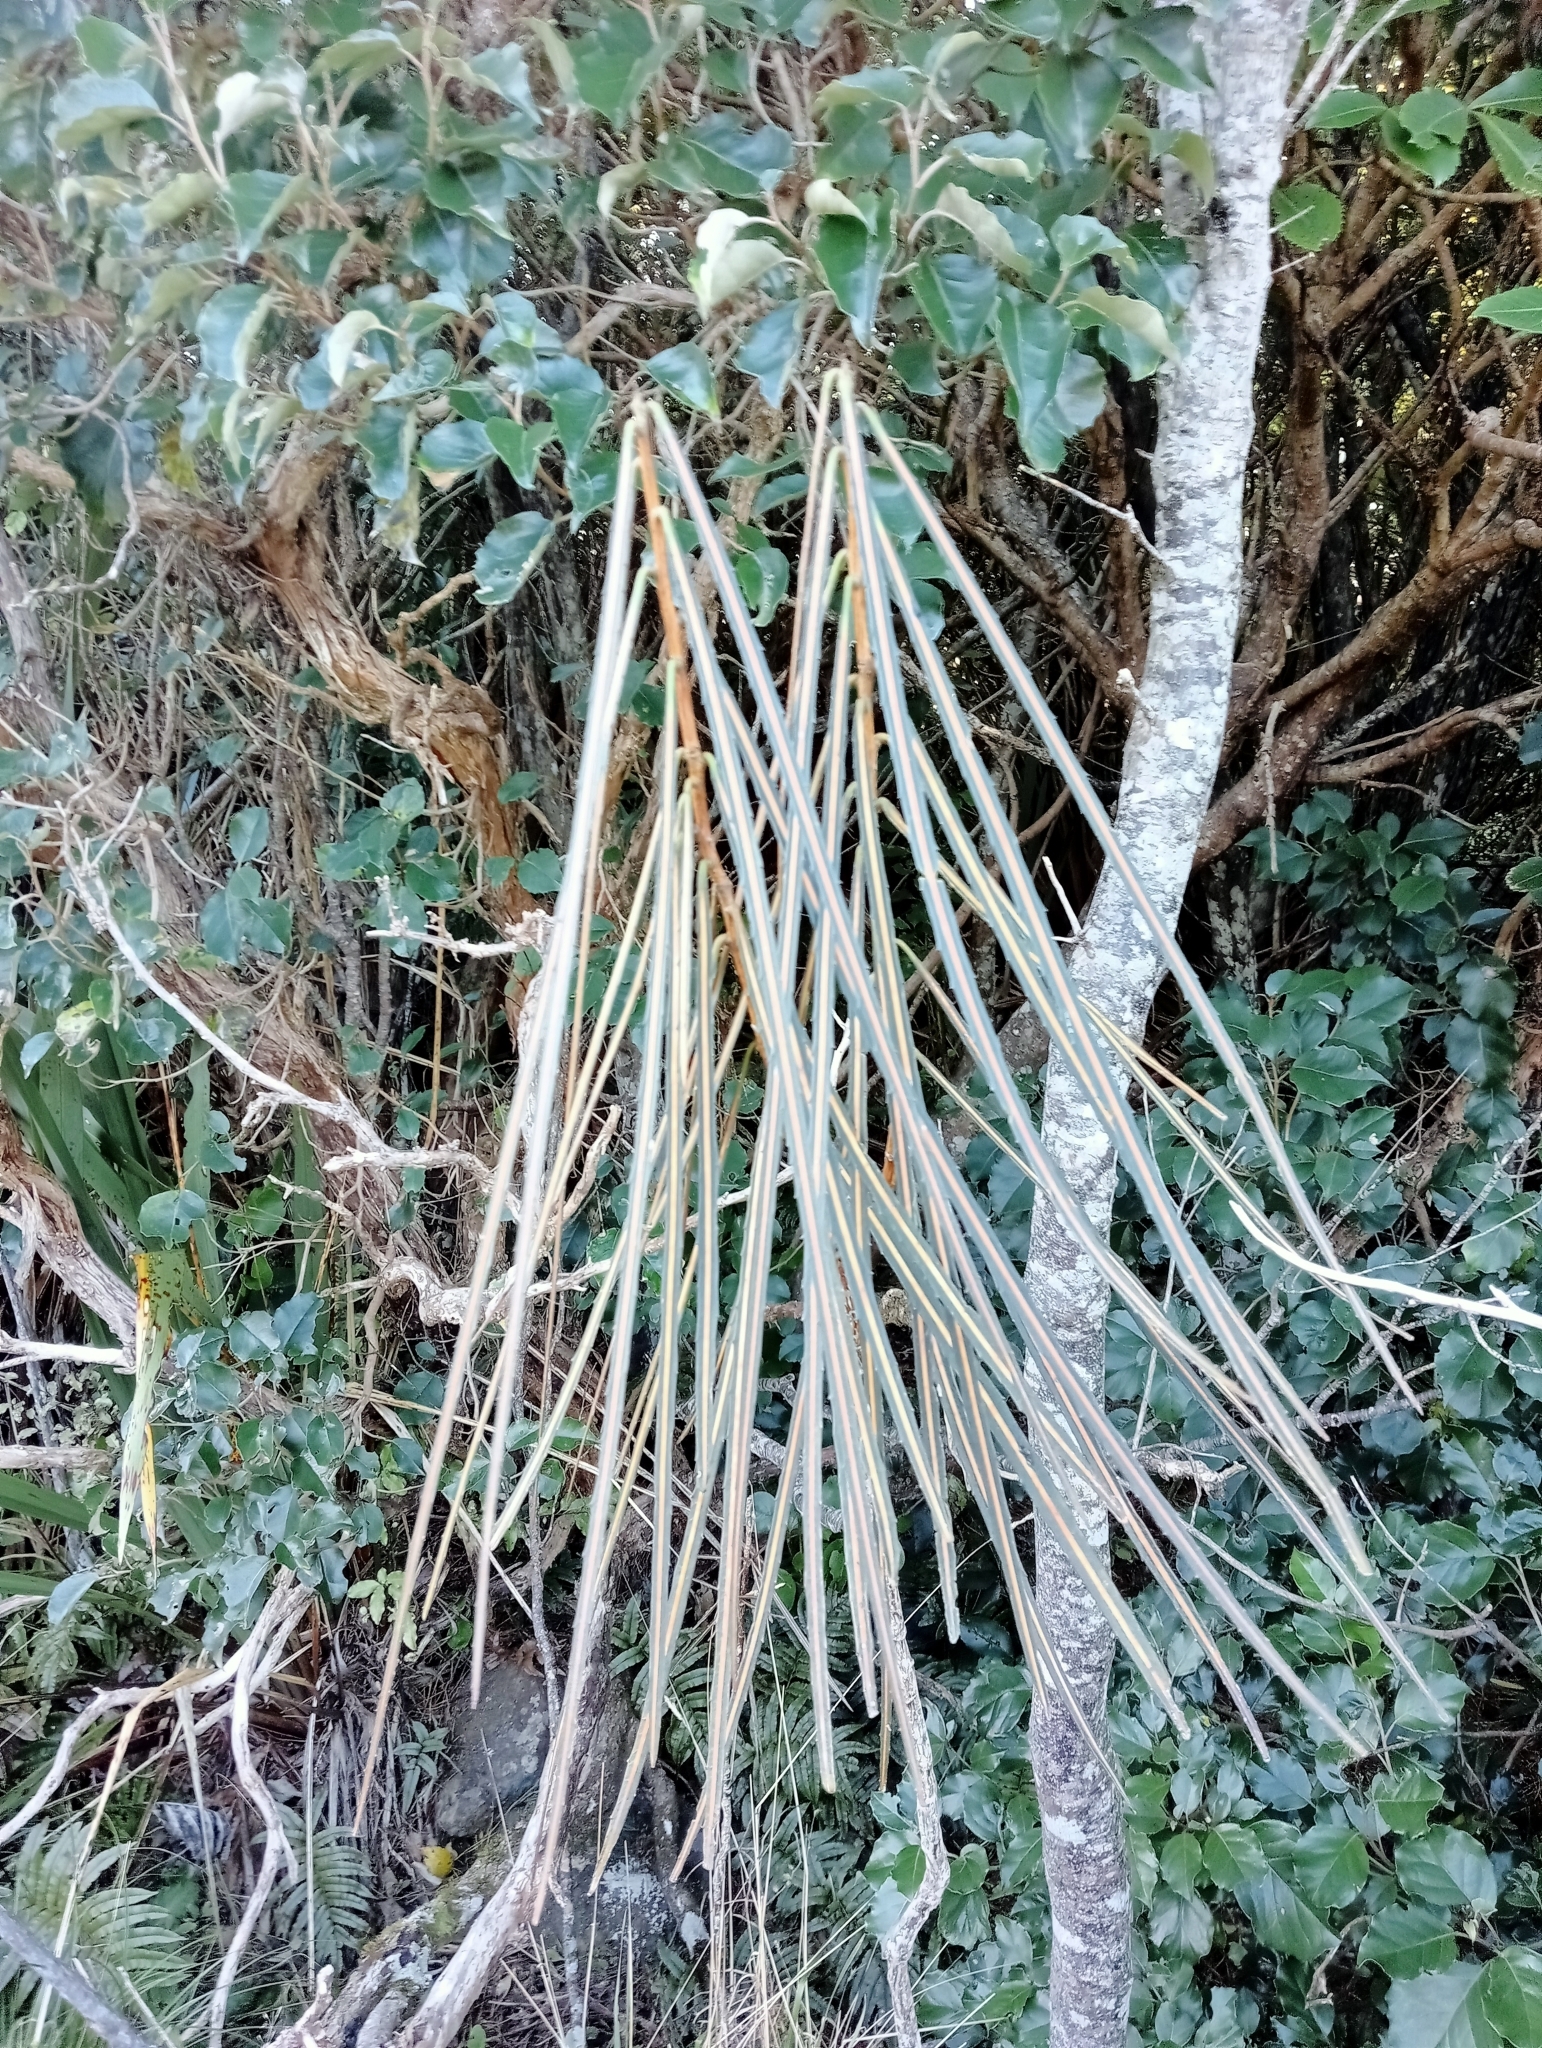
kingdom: Plantae
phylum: Tracheophyta
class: Magnoliopsida
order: Apiales
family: Araliaceae
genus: Pseudopanax
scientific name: Pseudopanax crassifolius
